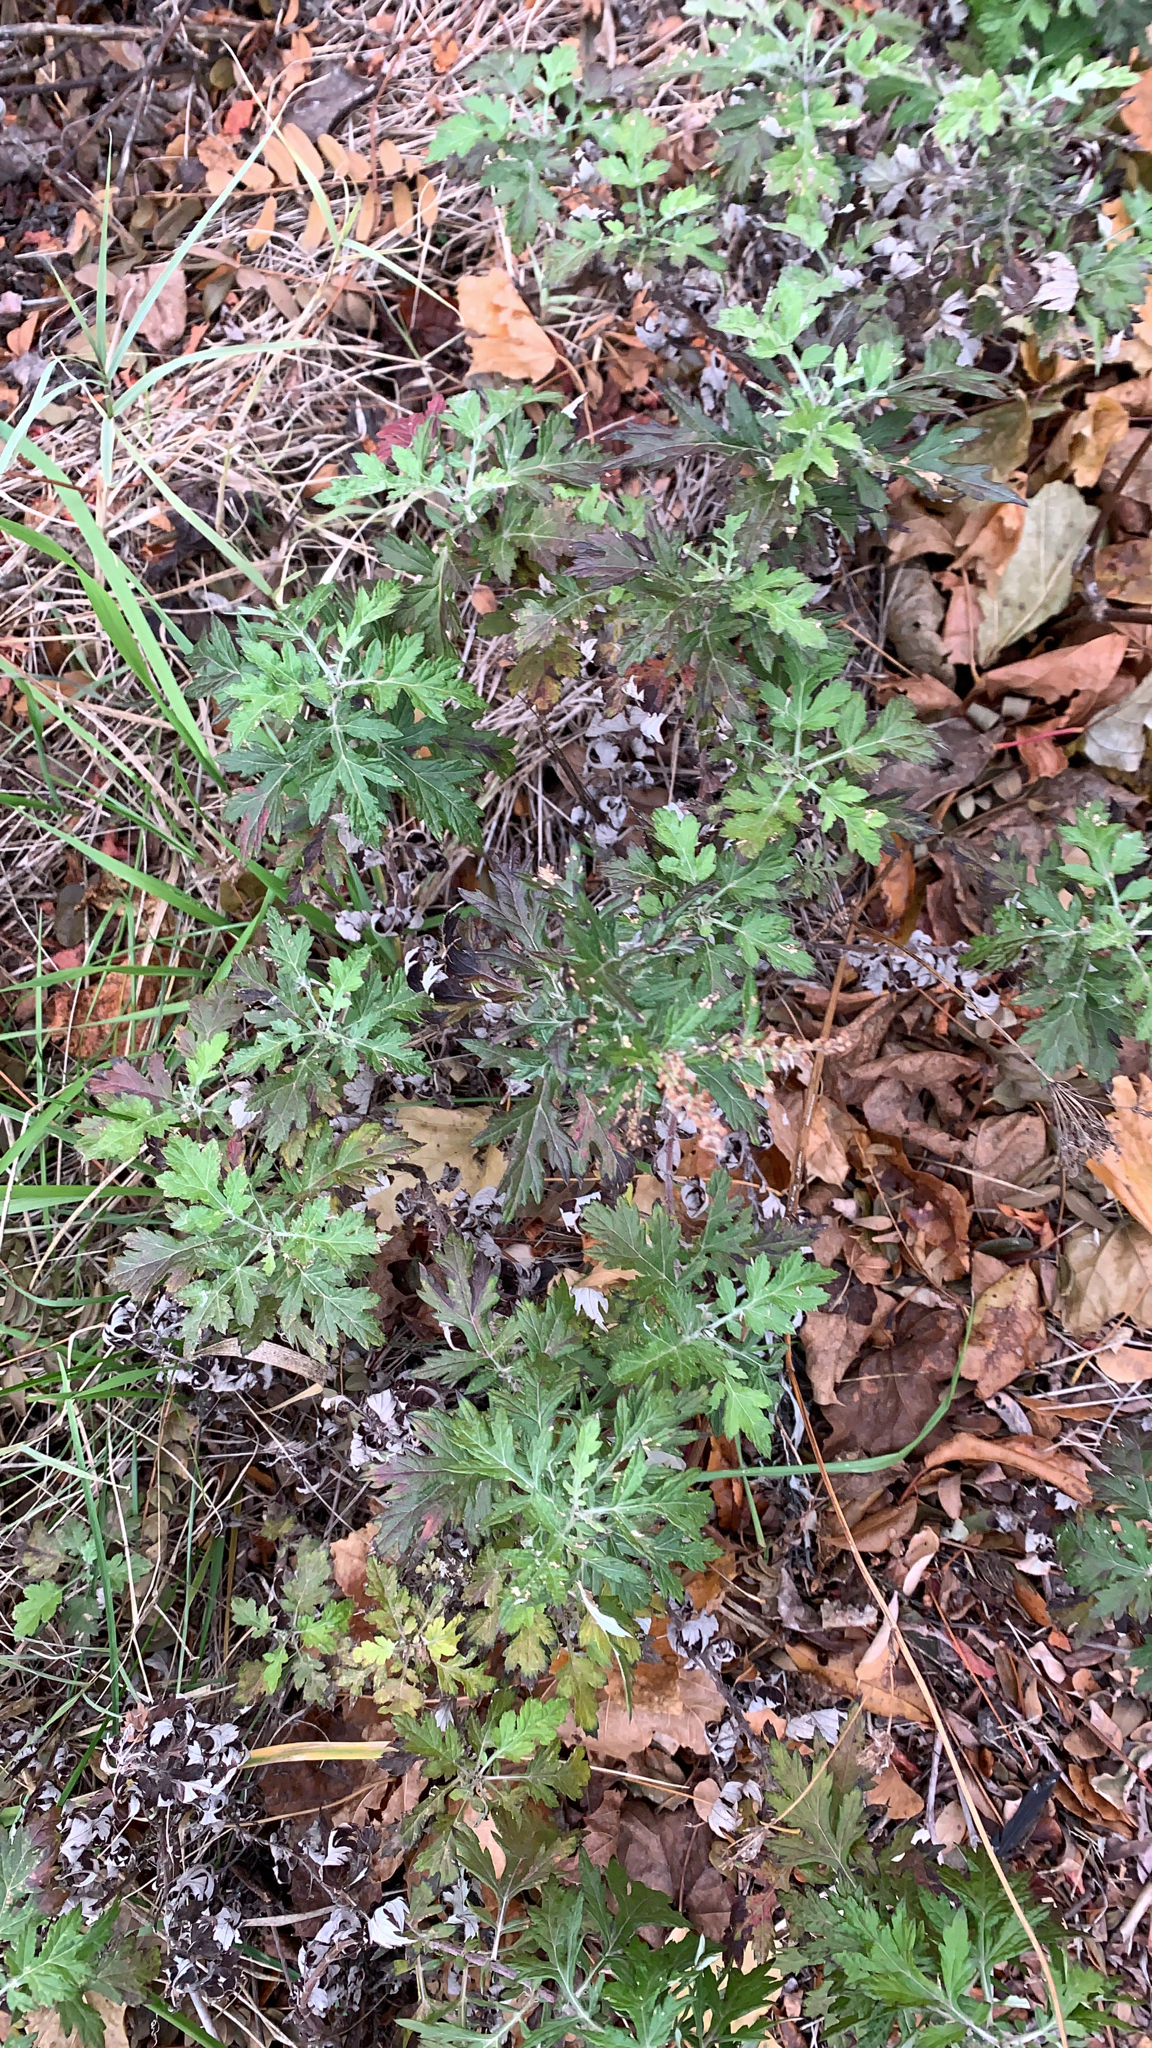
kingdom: Plantae
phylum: Tracheophyta
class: Magnoliopsida
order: Asterales
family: Asteraceae
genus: Artemisia
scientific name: Artemisia vulgaris
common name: Mugwort
